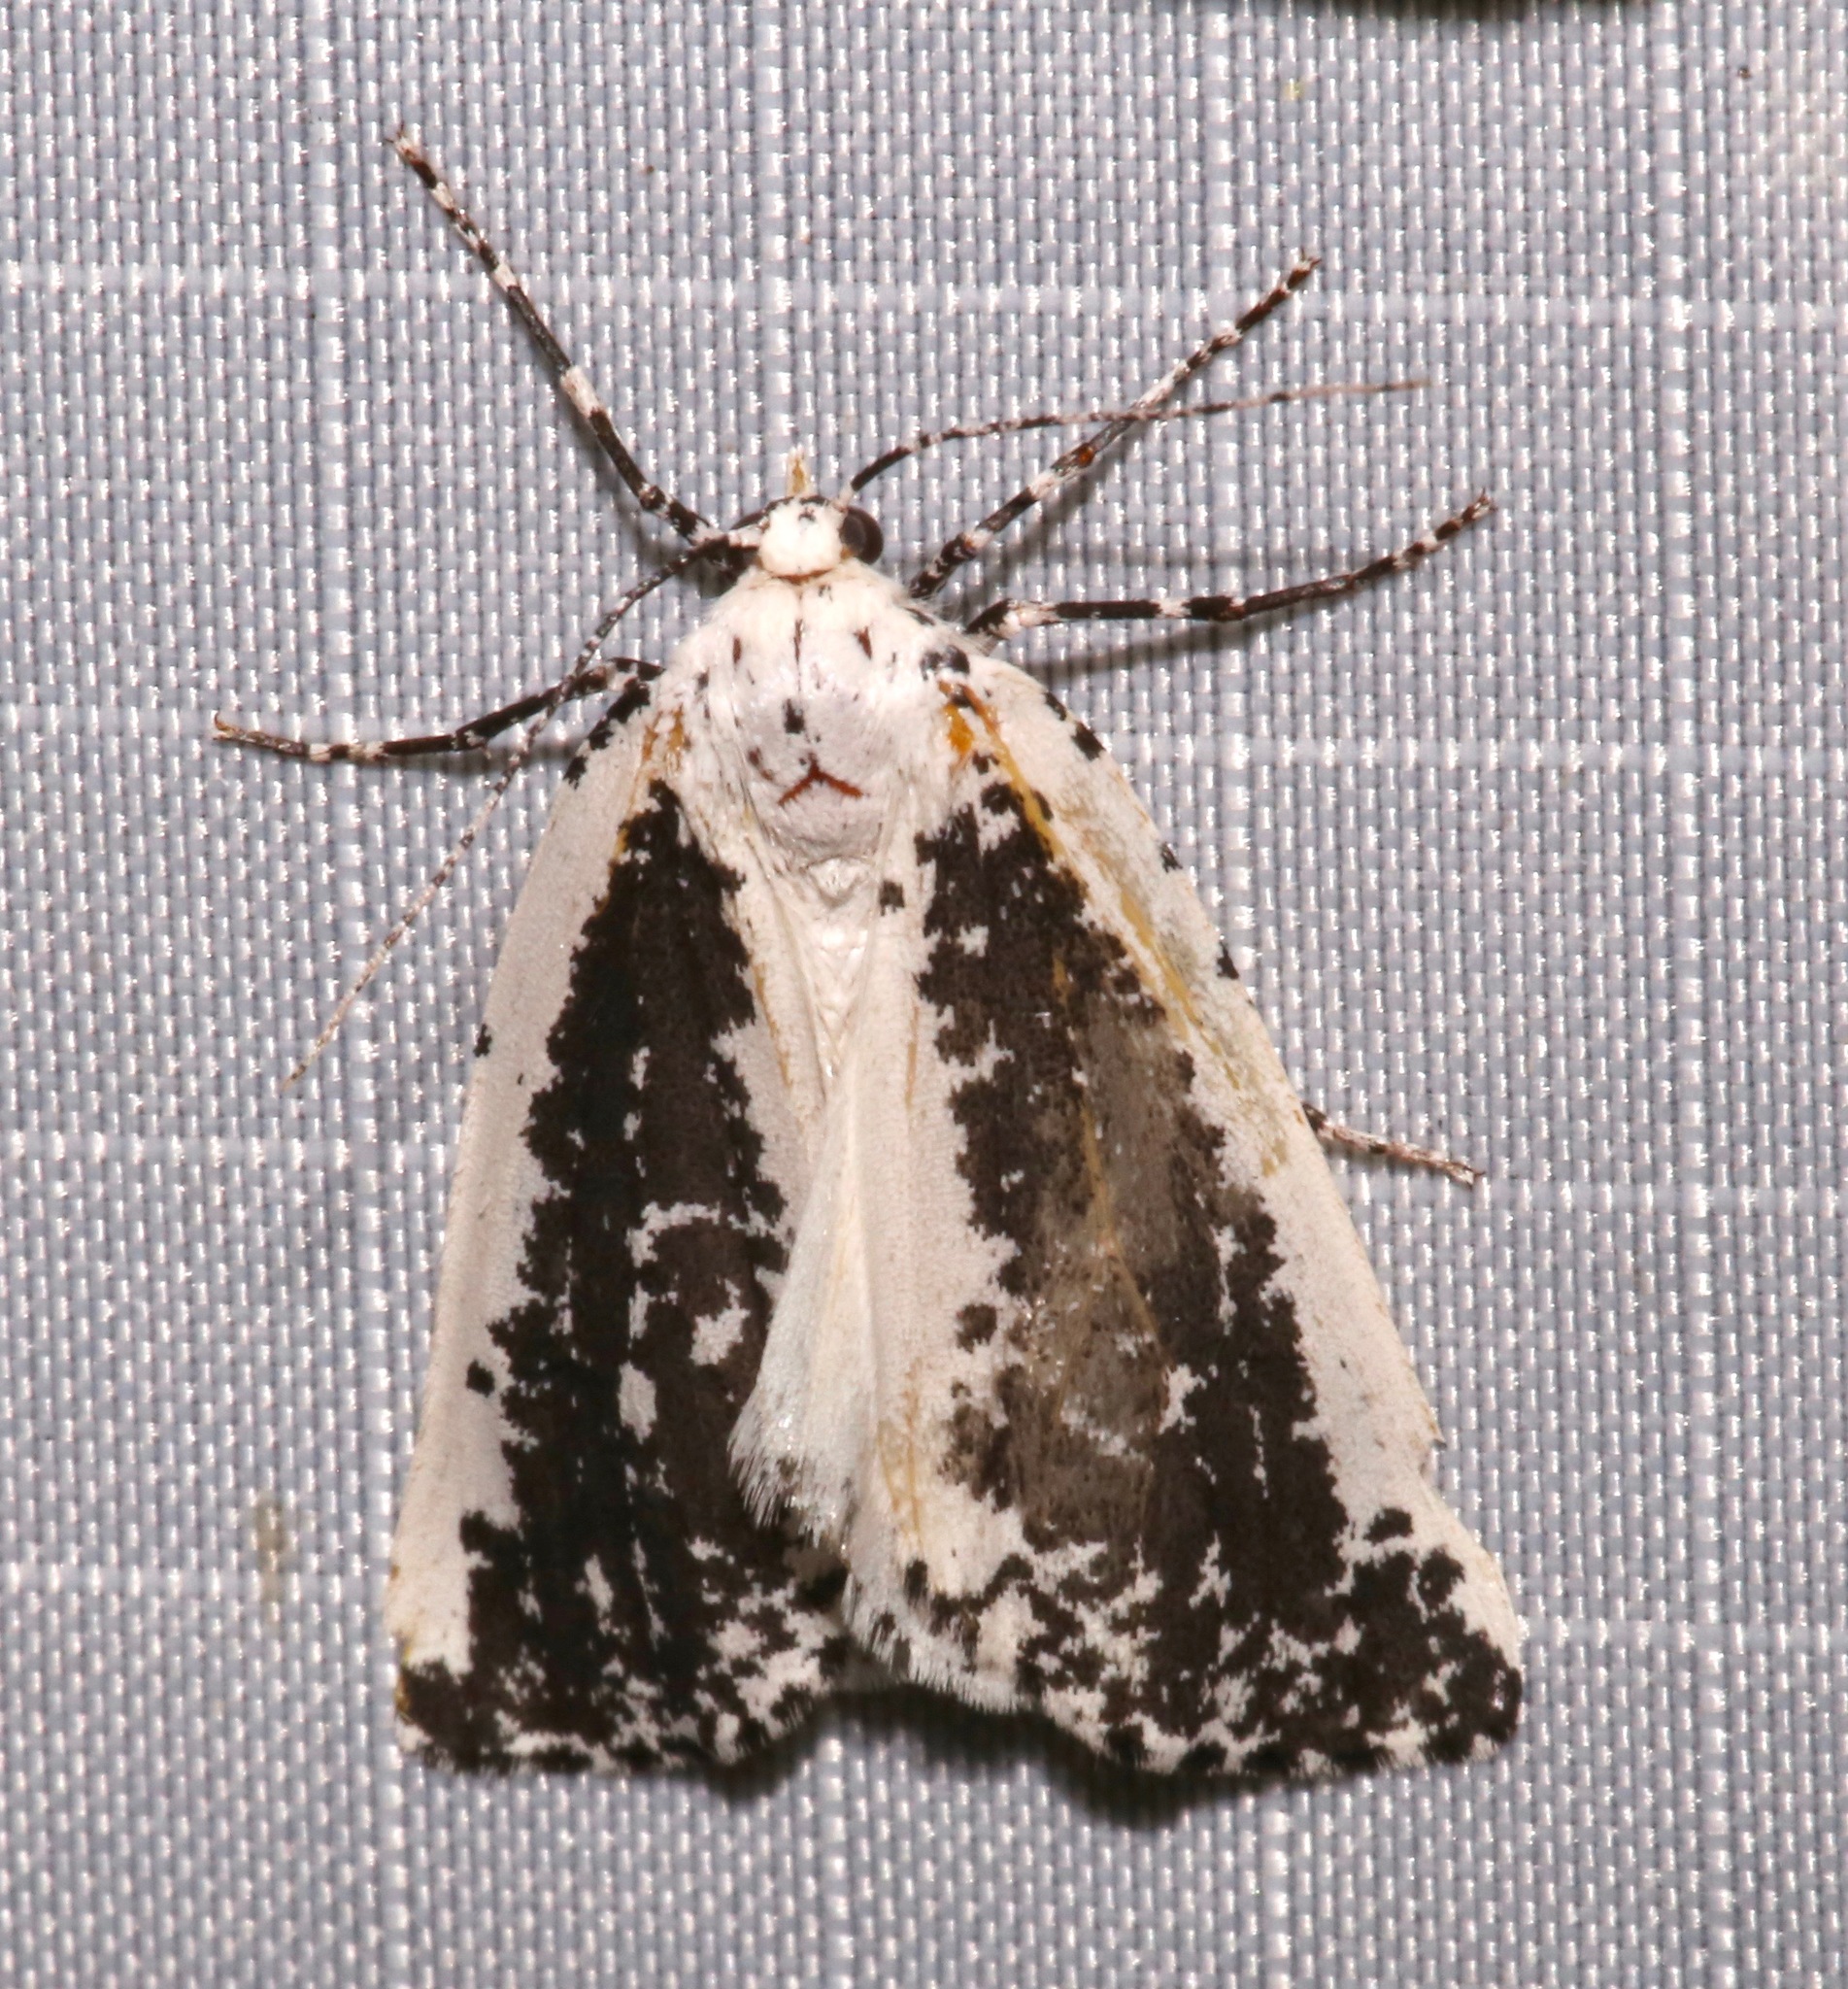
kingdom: Animalia
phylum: Arthropoda
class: Insecta
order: Lepidoptera
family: Geometridae
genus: Eucaterva
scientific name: Eucaterva variaria
